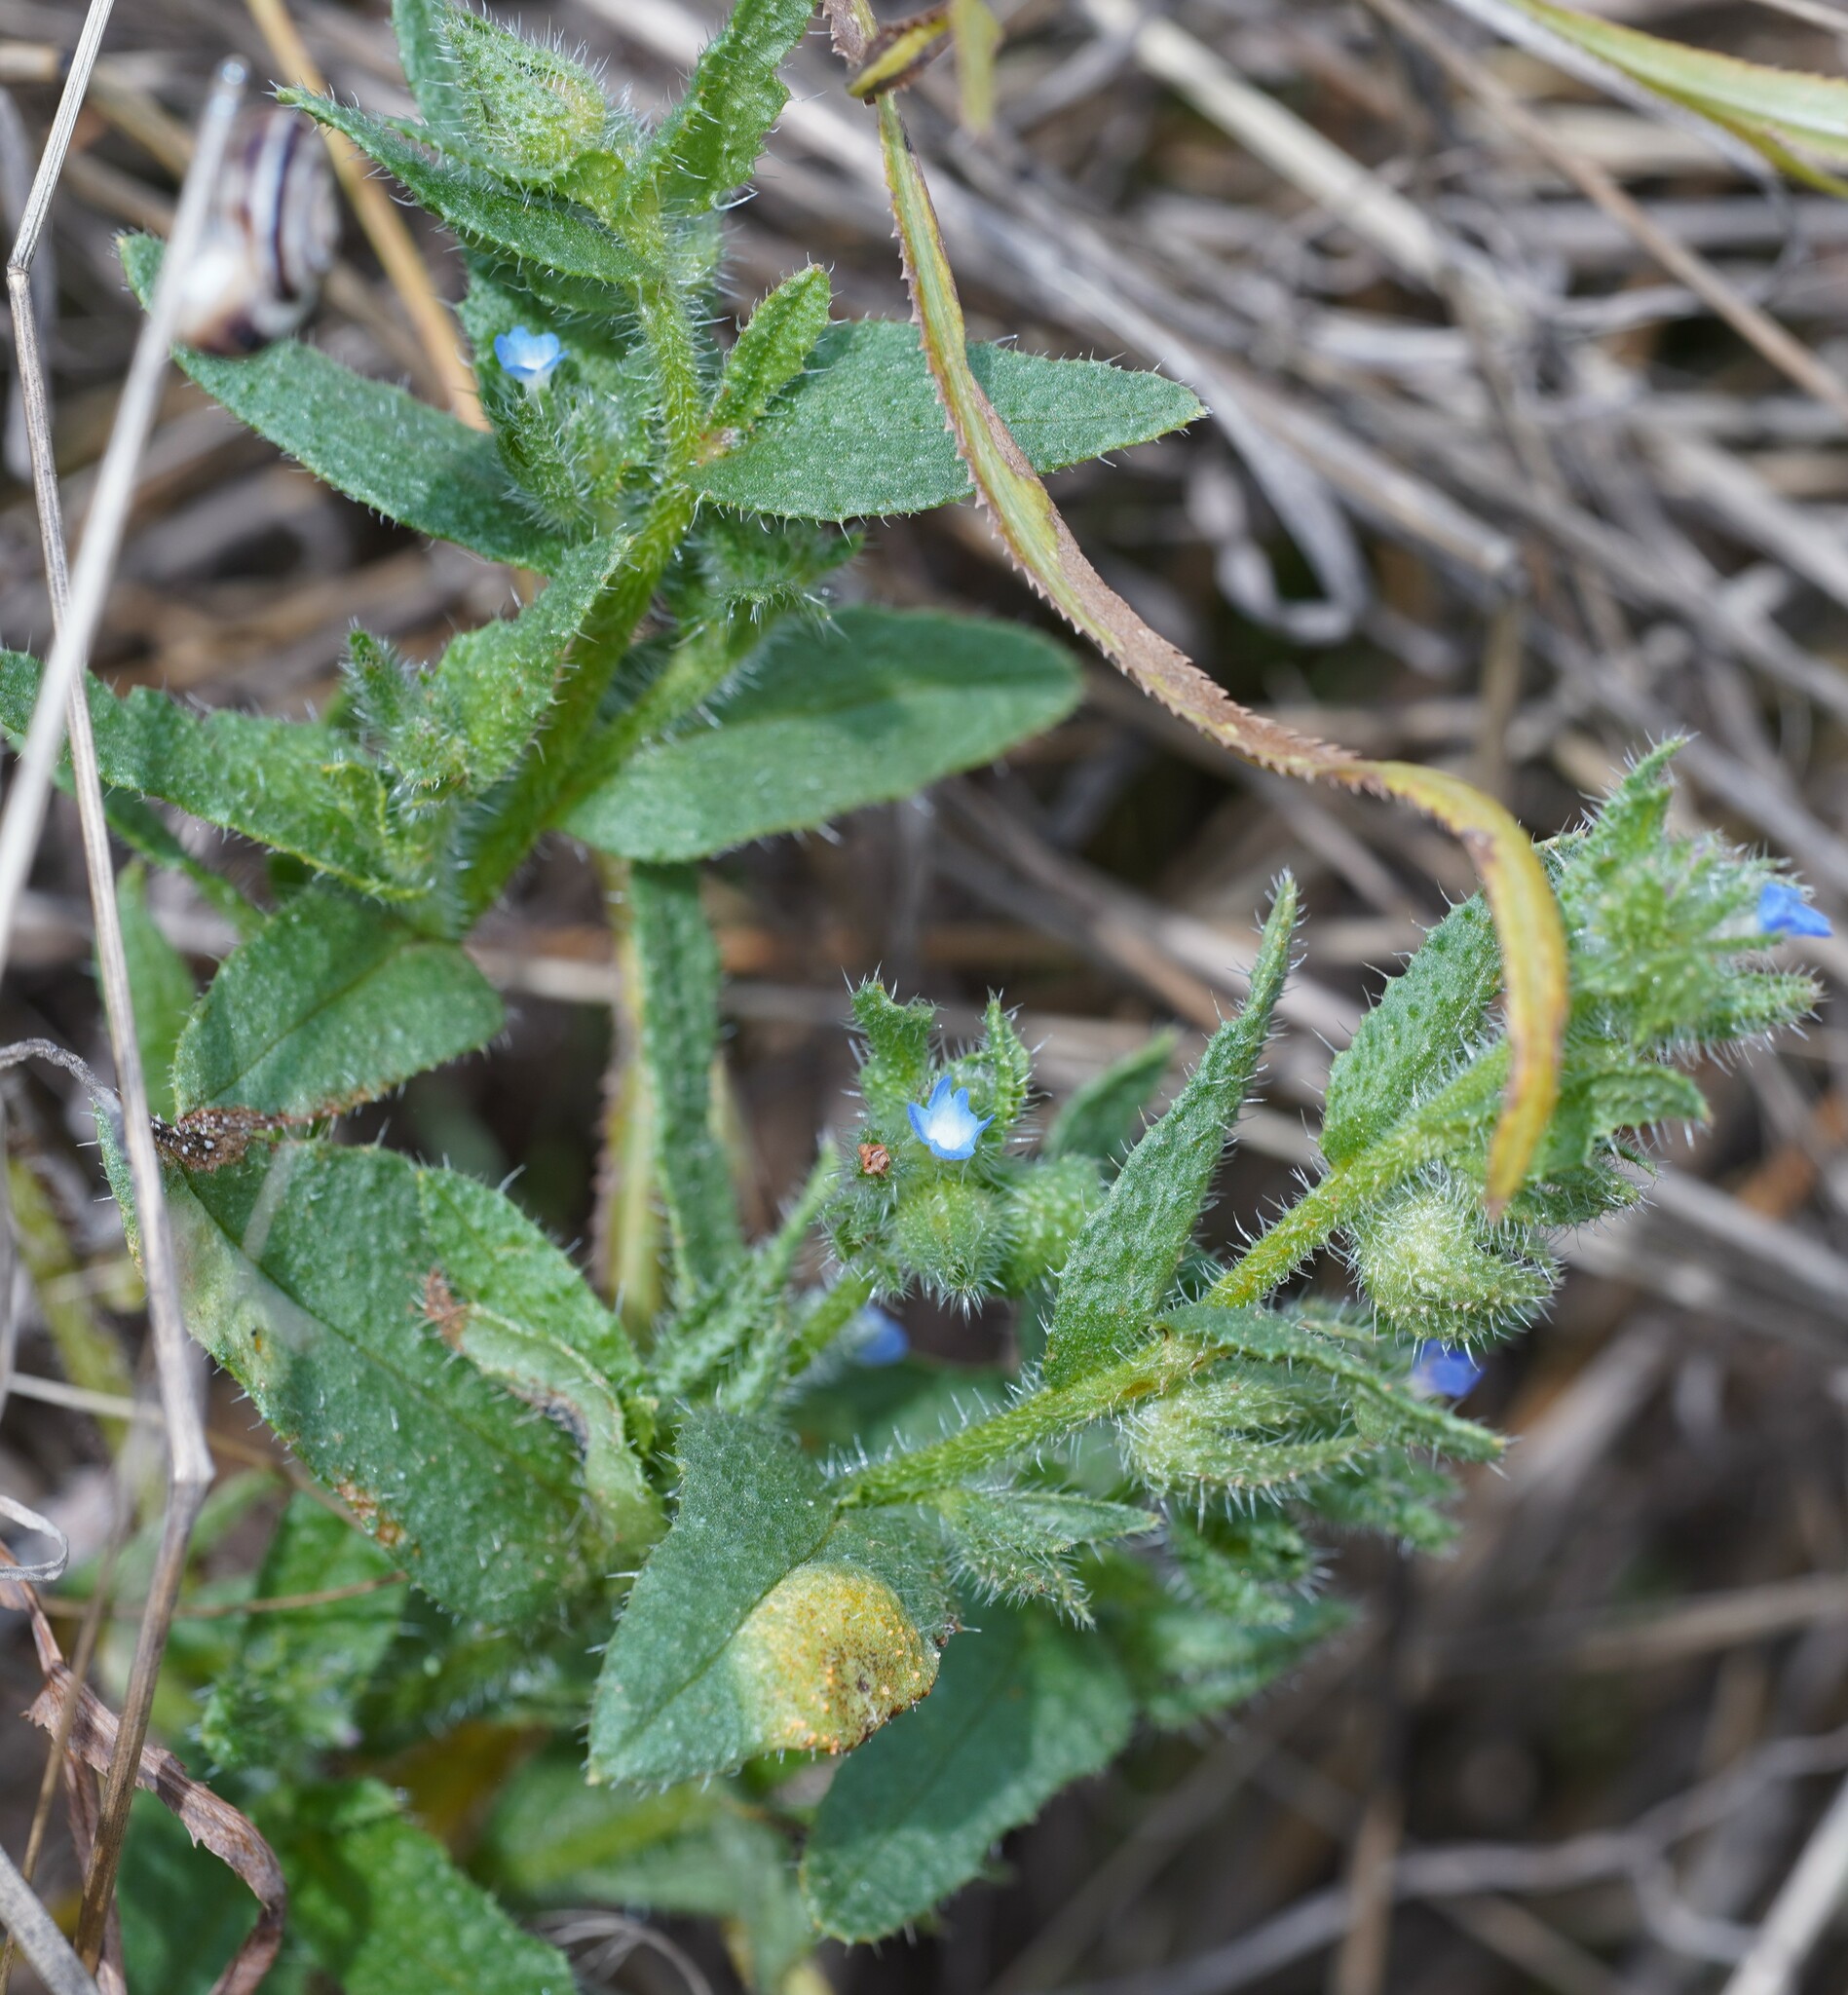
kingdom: Plantae
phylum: Tracheophyta
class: Magnoliopsida
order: Boraginales
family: Boraginaceae
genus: Lycopsis
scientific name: Lycopsis arvensis
